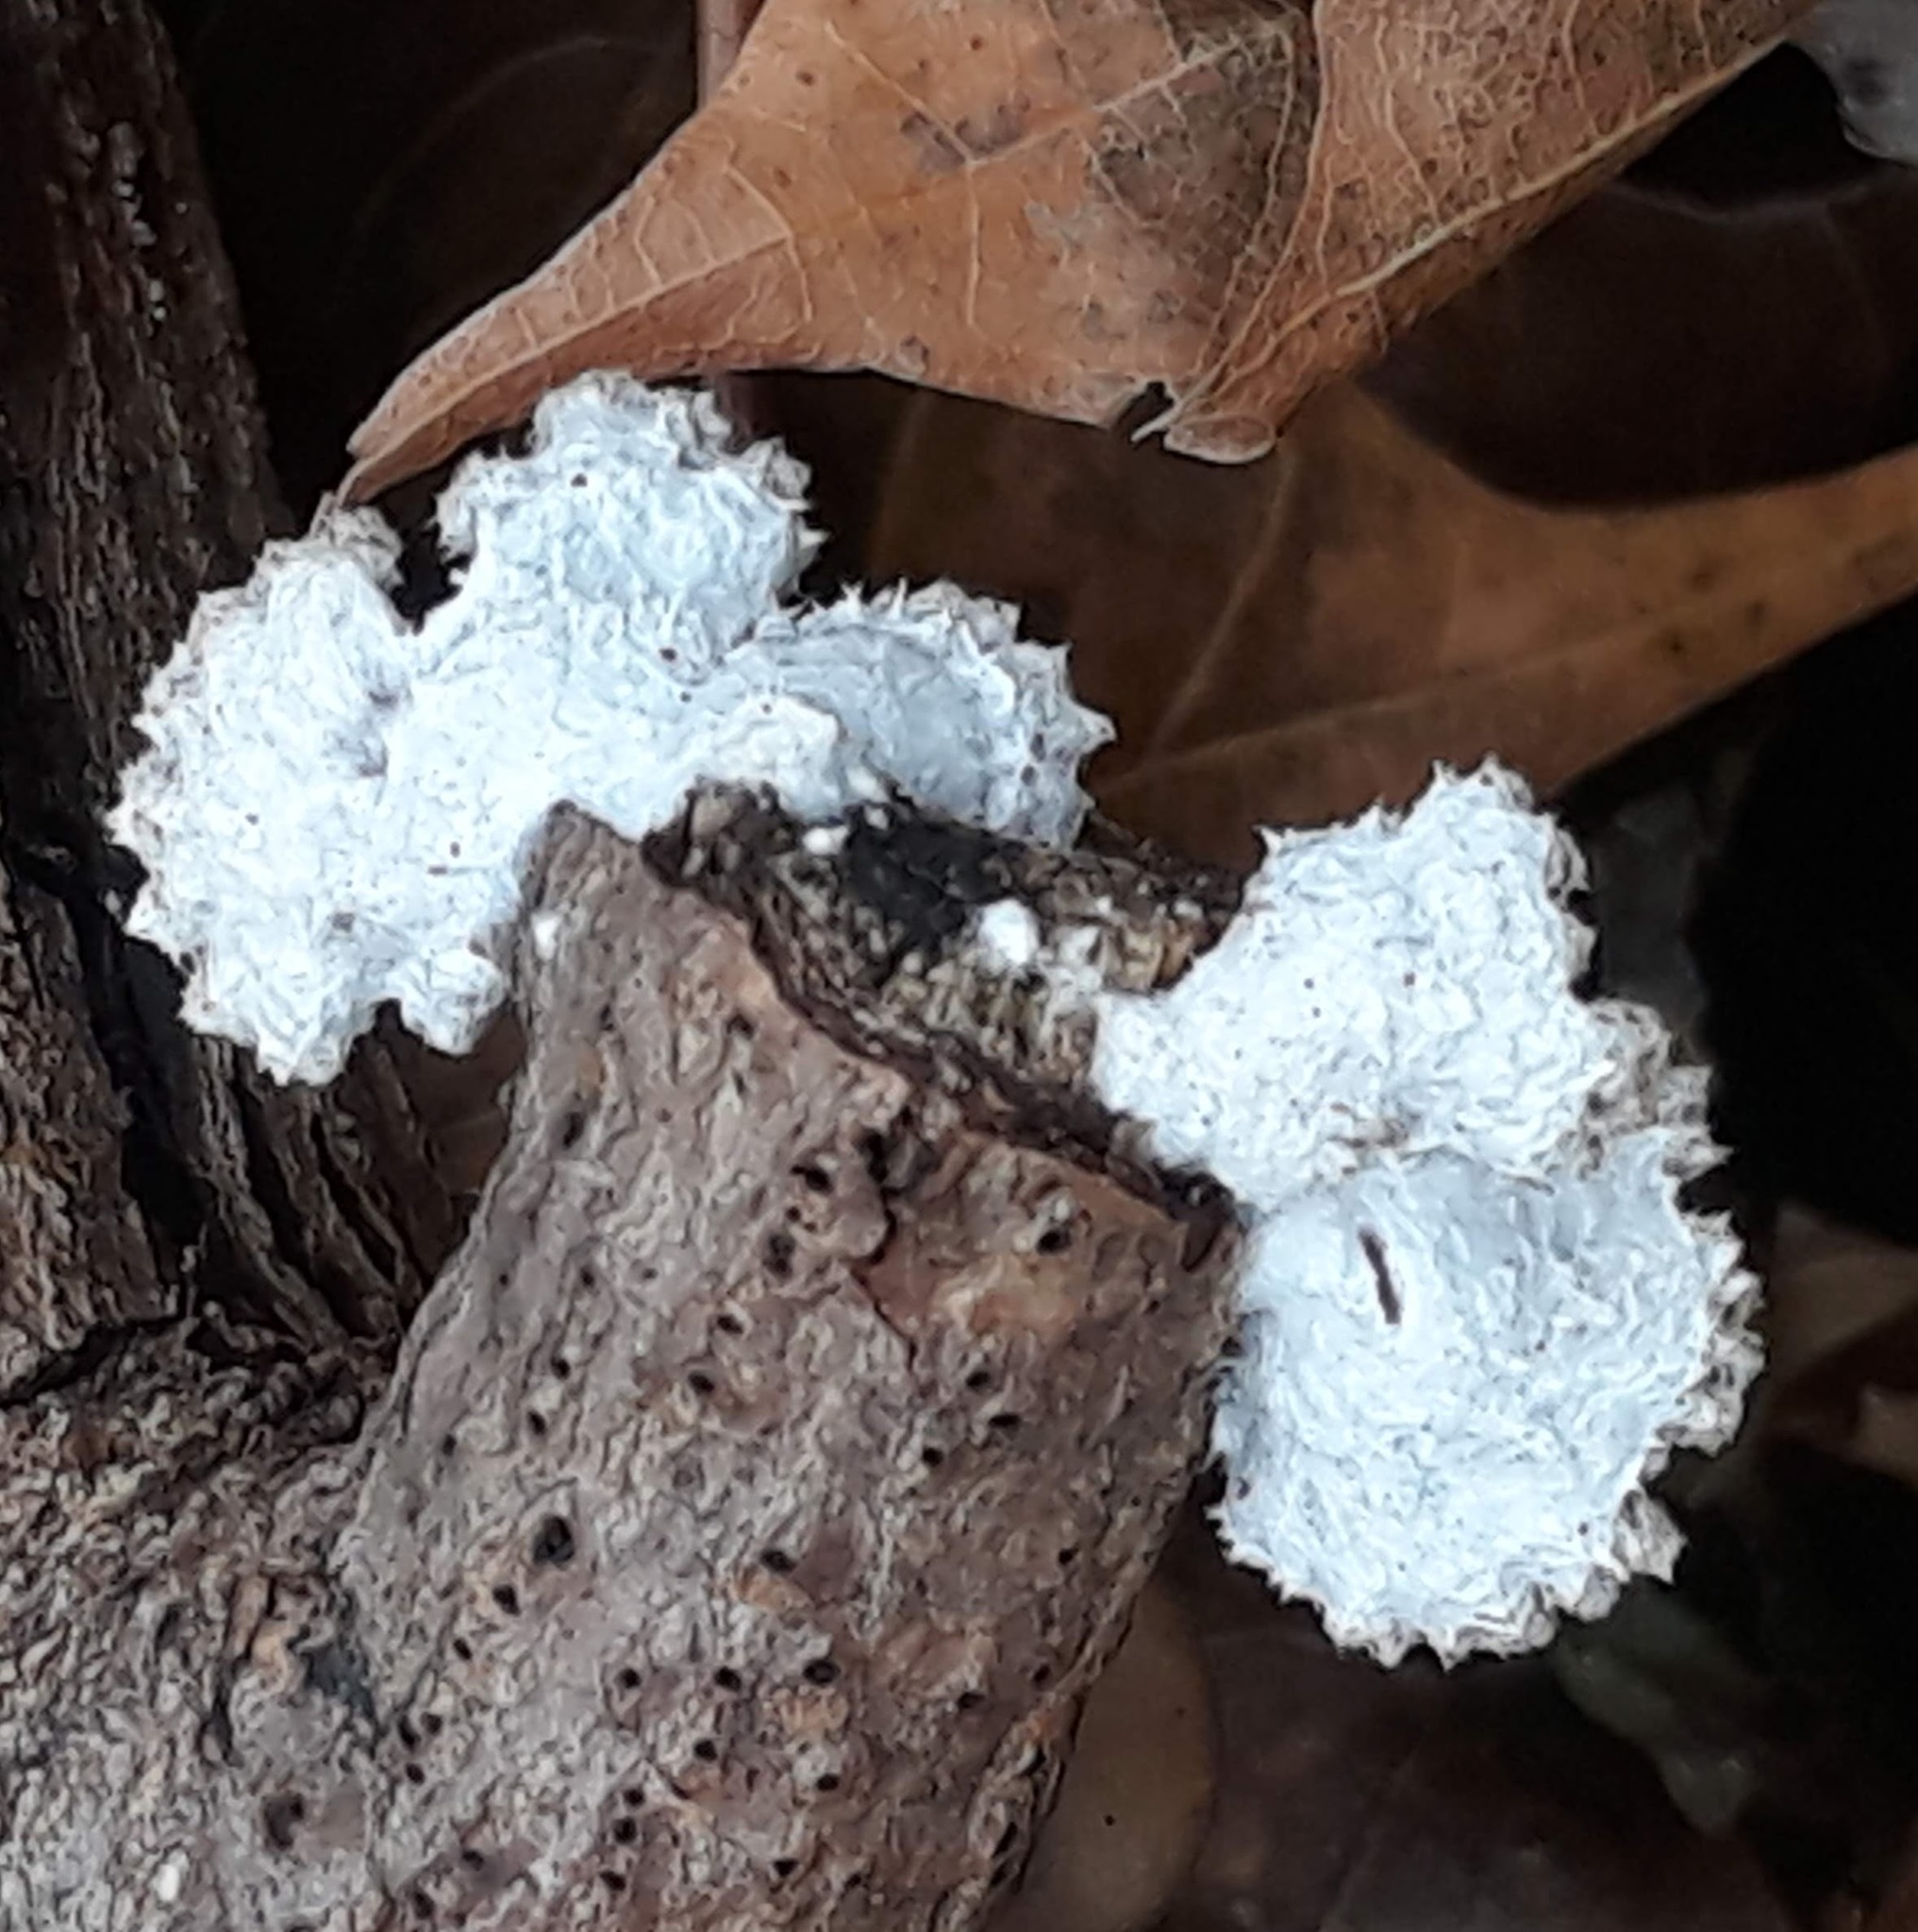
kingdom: Fungi
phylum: Basidiomycota
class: Agaricomycetes
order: Agaricales
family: Schizophyllaceae
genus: Schizophyllum
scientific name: Schizophyllum commune
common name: Common porecrust
